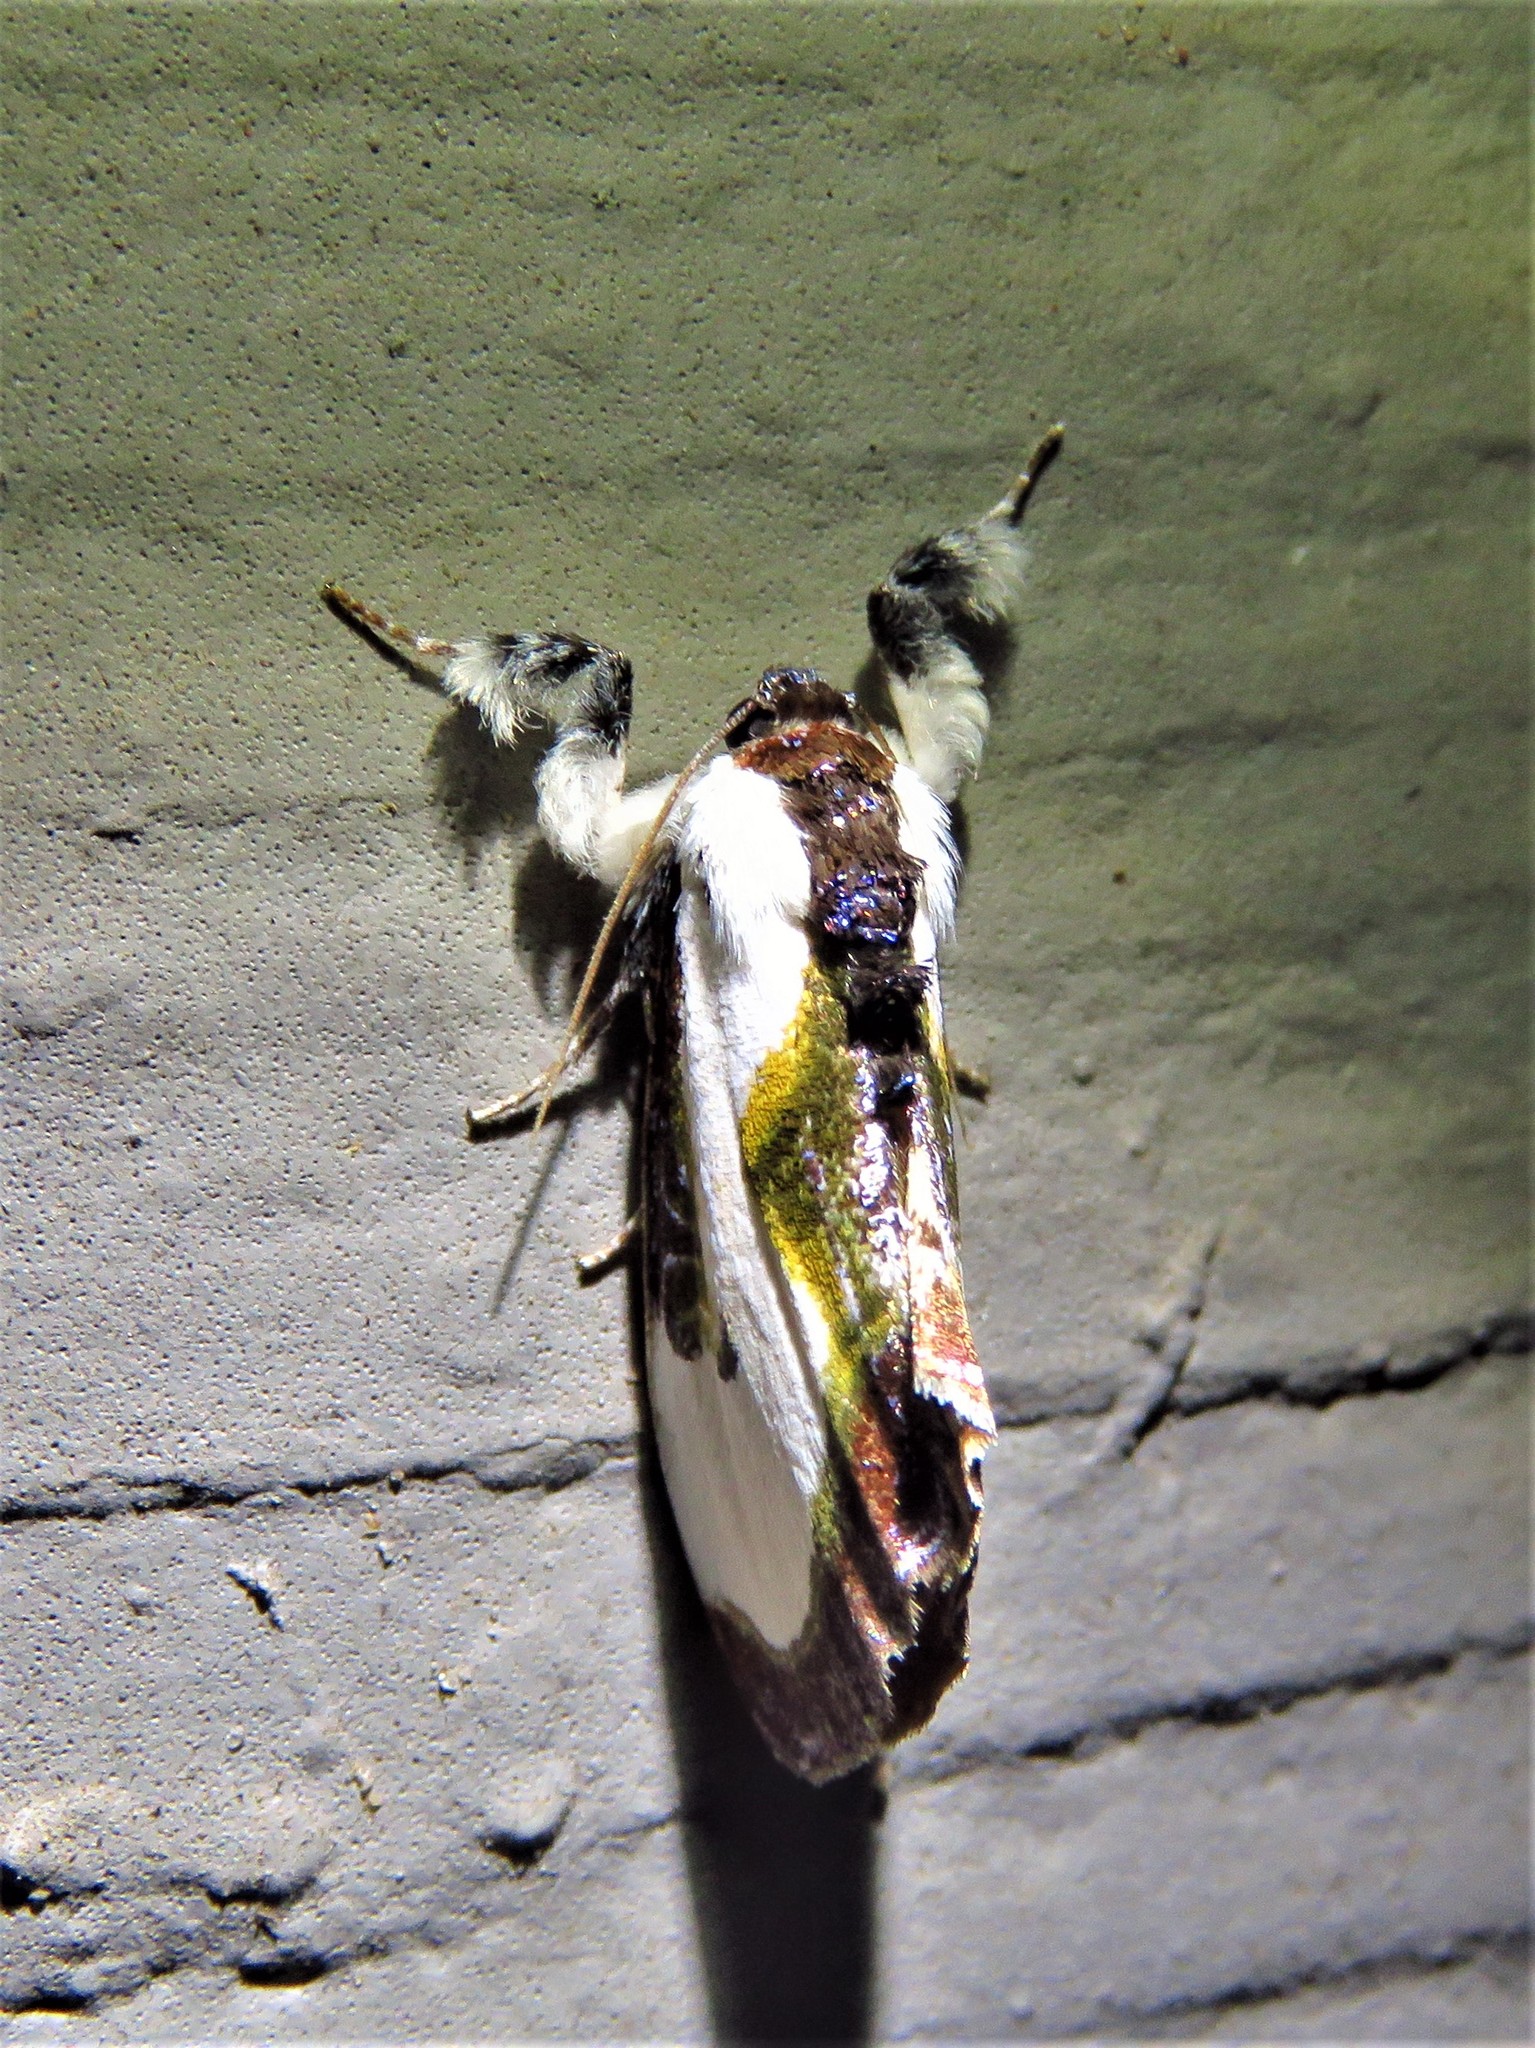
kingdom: Animalia
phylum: Arthropoda
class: Insecta
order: Lepidoptera
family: Noctuidae
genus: Eudryas
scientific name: Eudryas grata
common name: Beautiful wood-nymph
